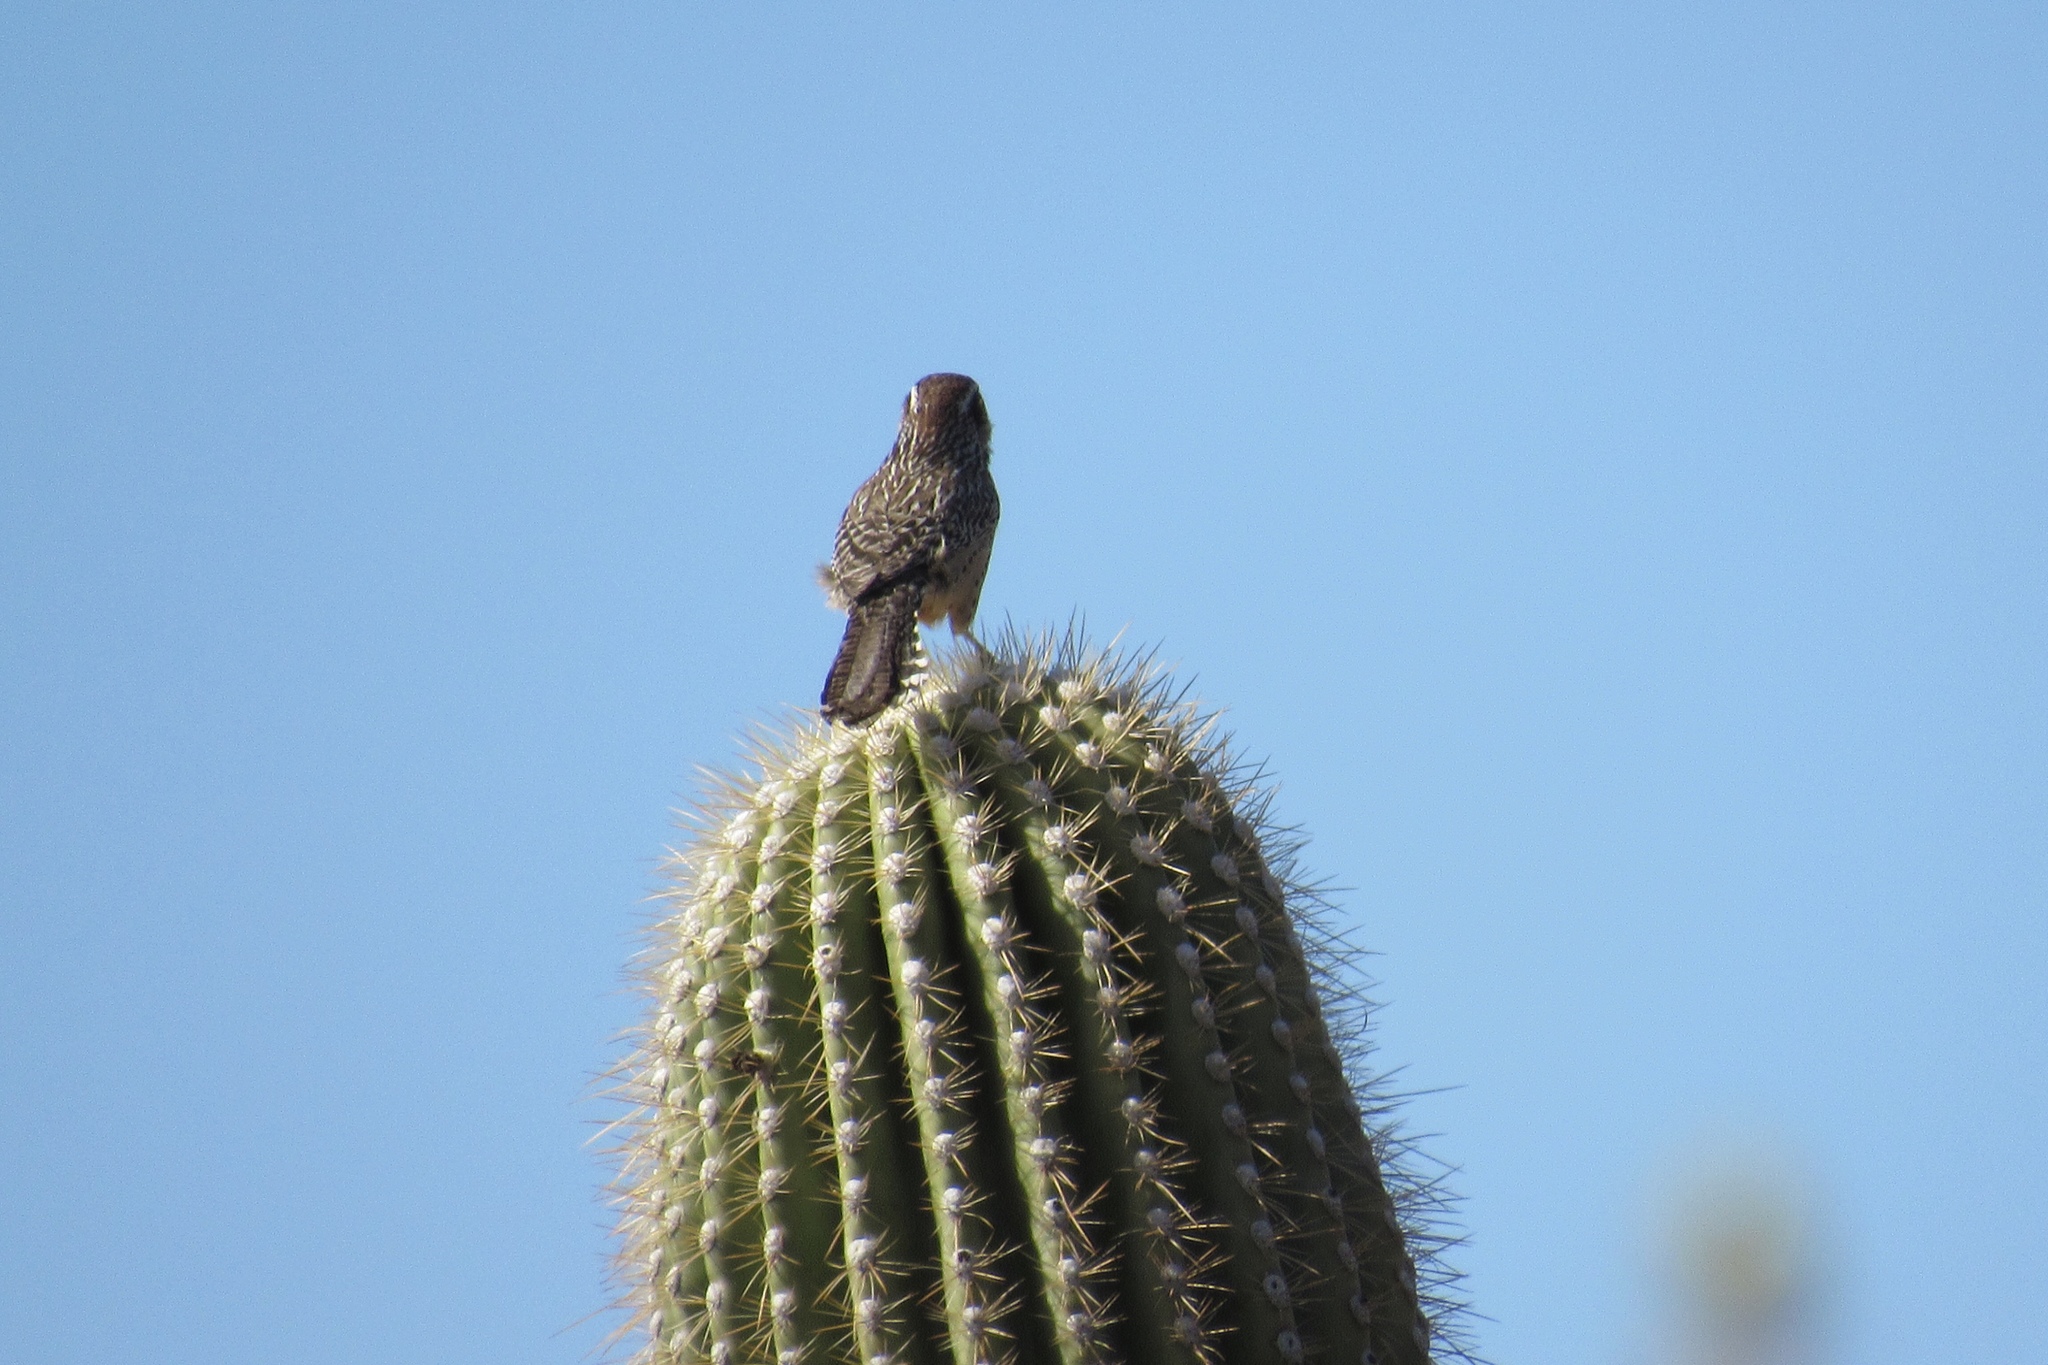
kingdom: Animalia
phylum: Chordata
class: Aves
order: Passeriformes
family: Troglodytidae
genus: Campylorhynchus
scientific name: Campylorhynchus brunneicapillus
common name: Cactus wren
